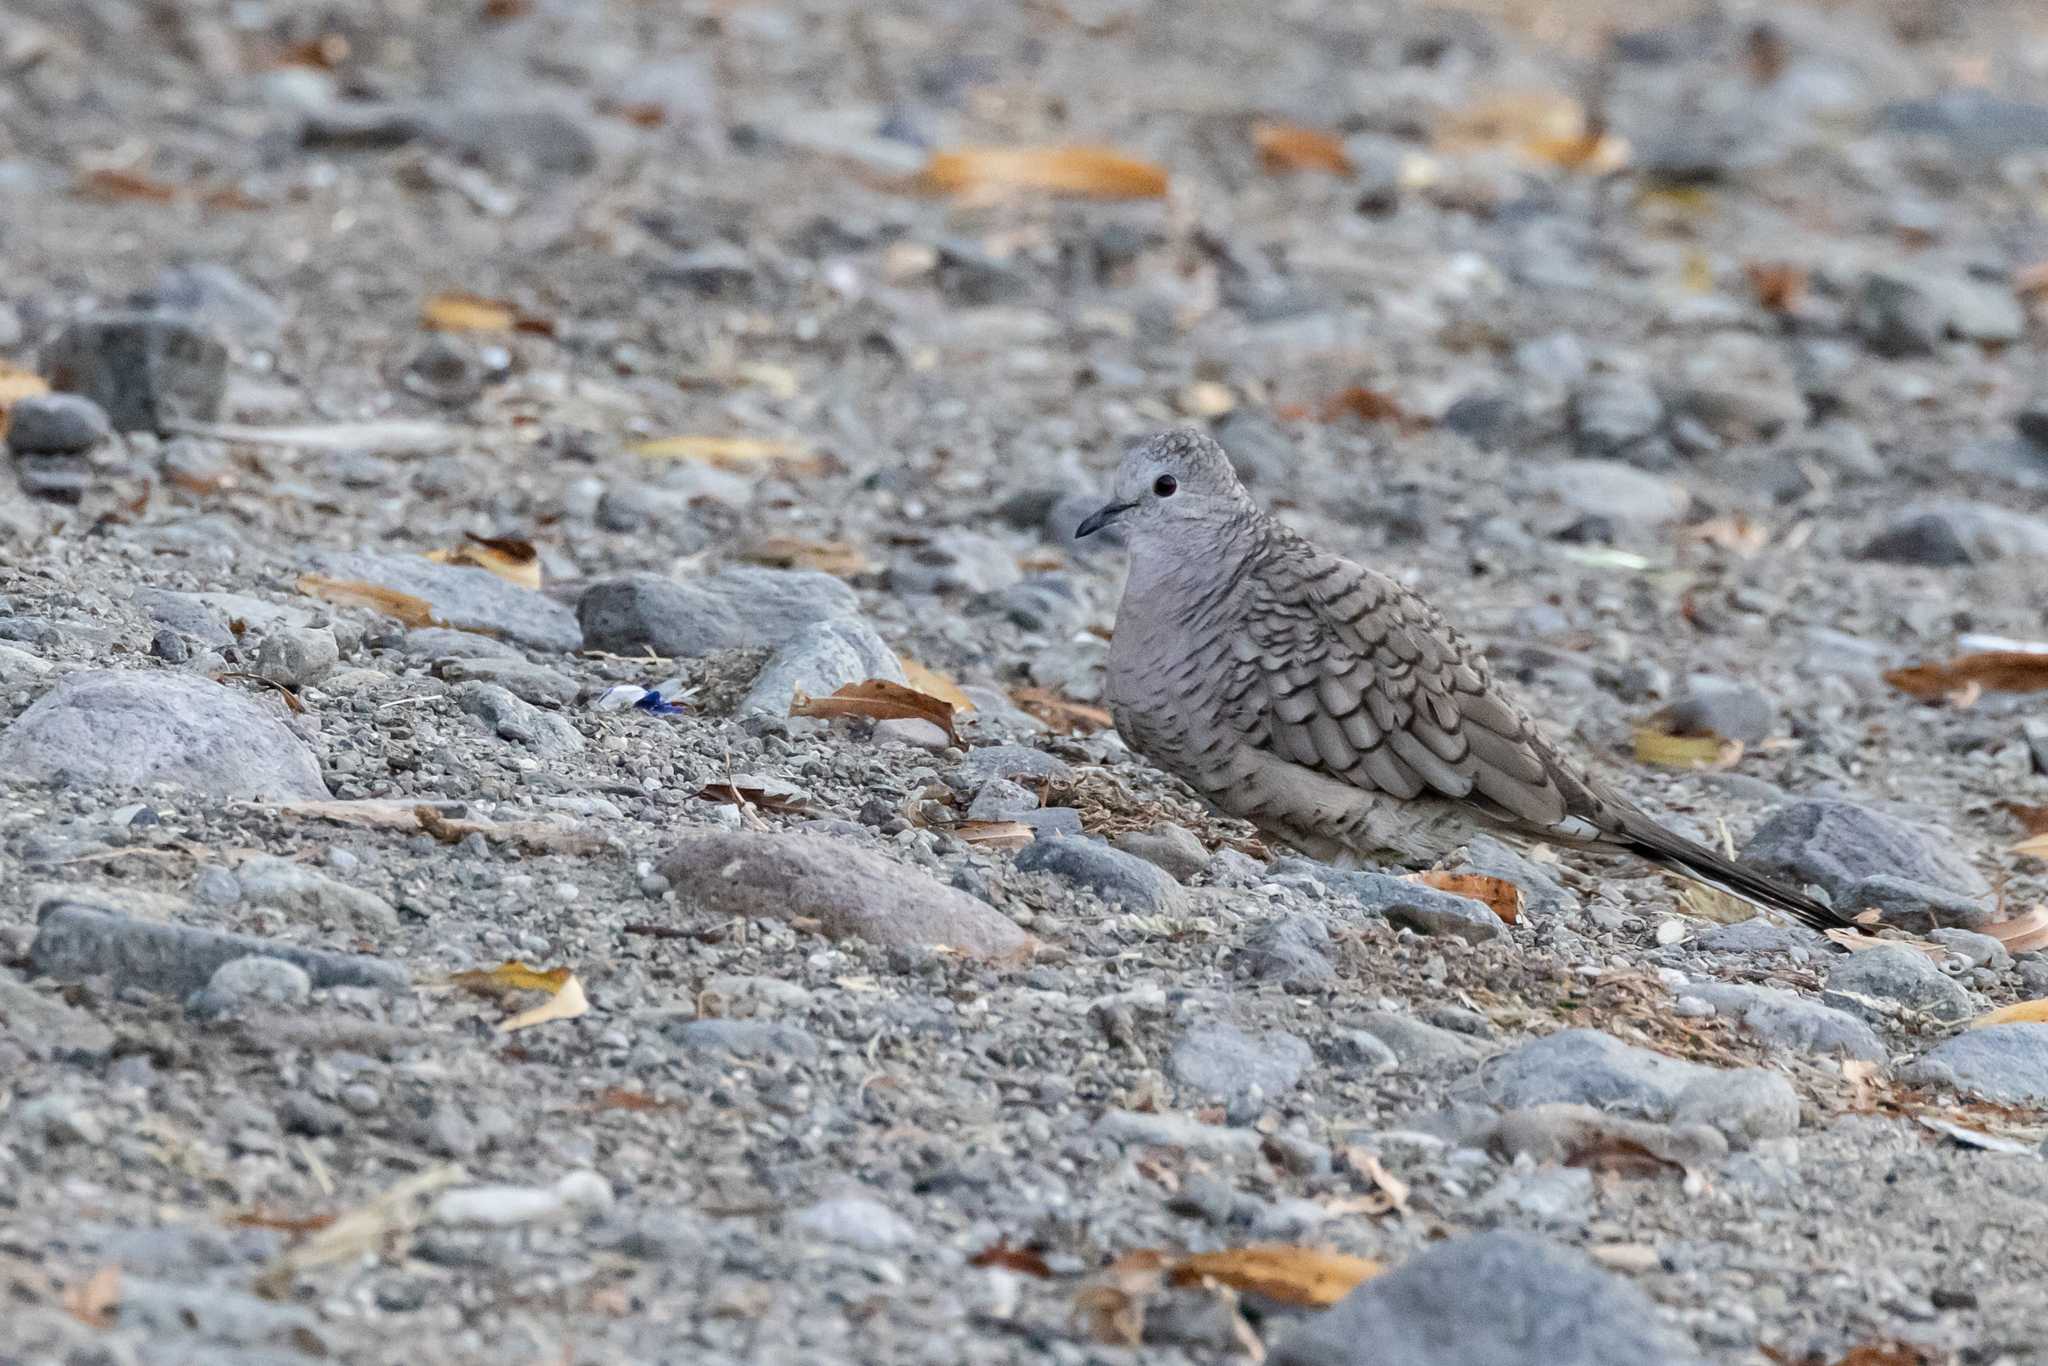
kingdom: Animalia
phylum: Chordata
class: Aves
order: Columbiformes
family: Columbidae
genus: Columbina
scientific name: Columbina inca
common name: Inca dove
